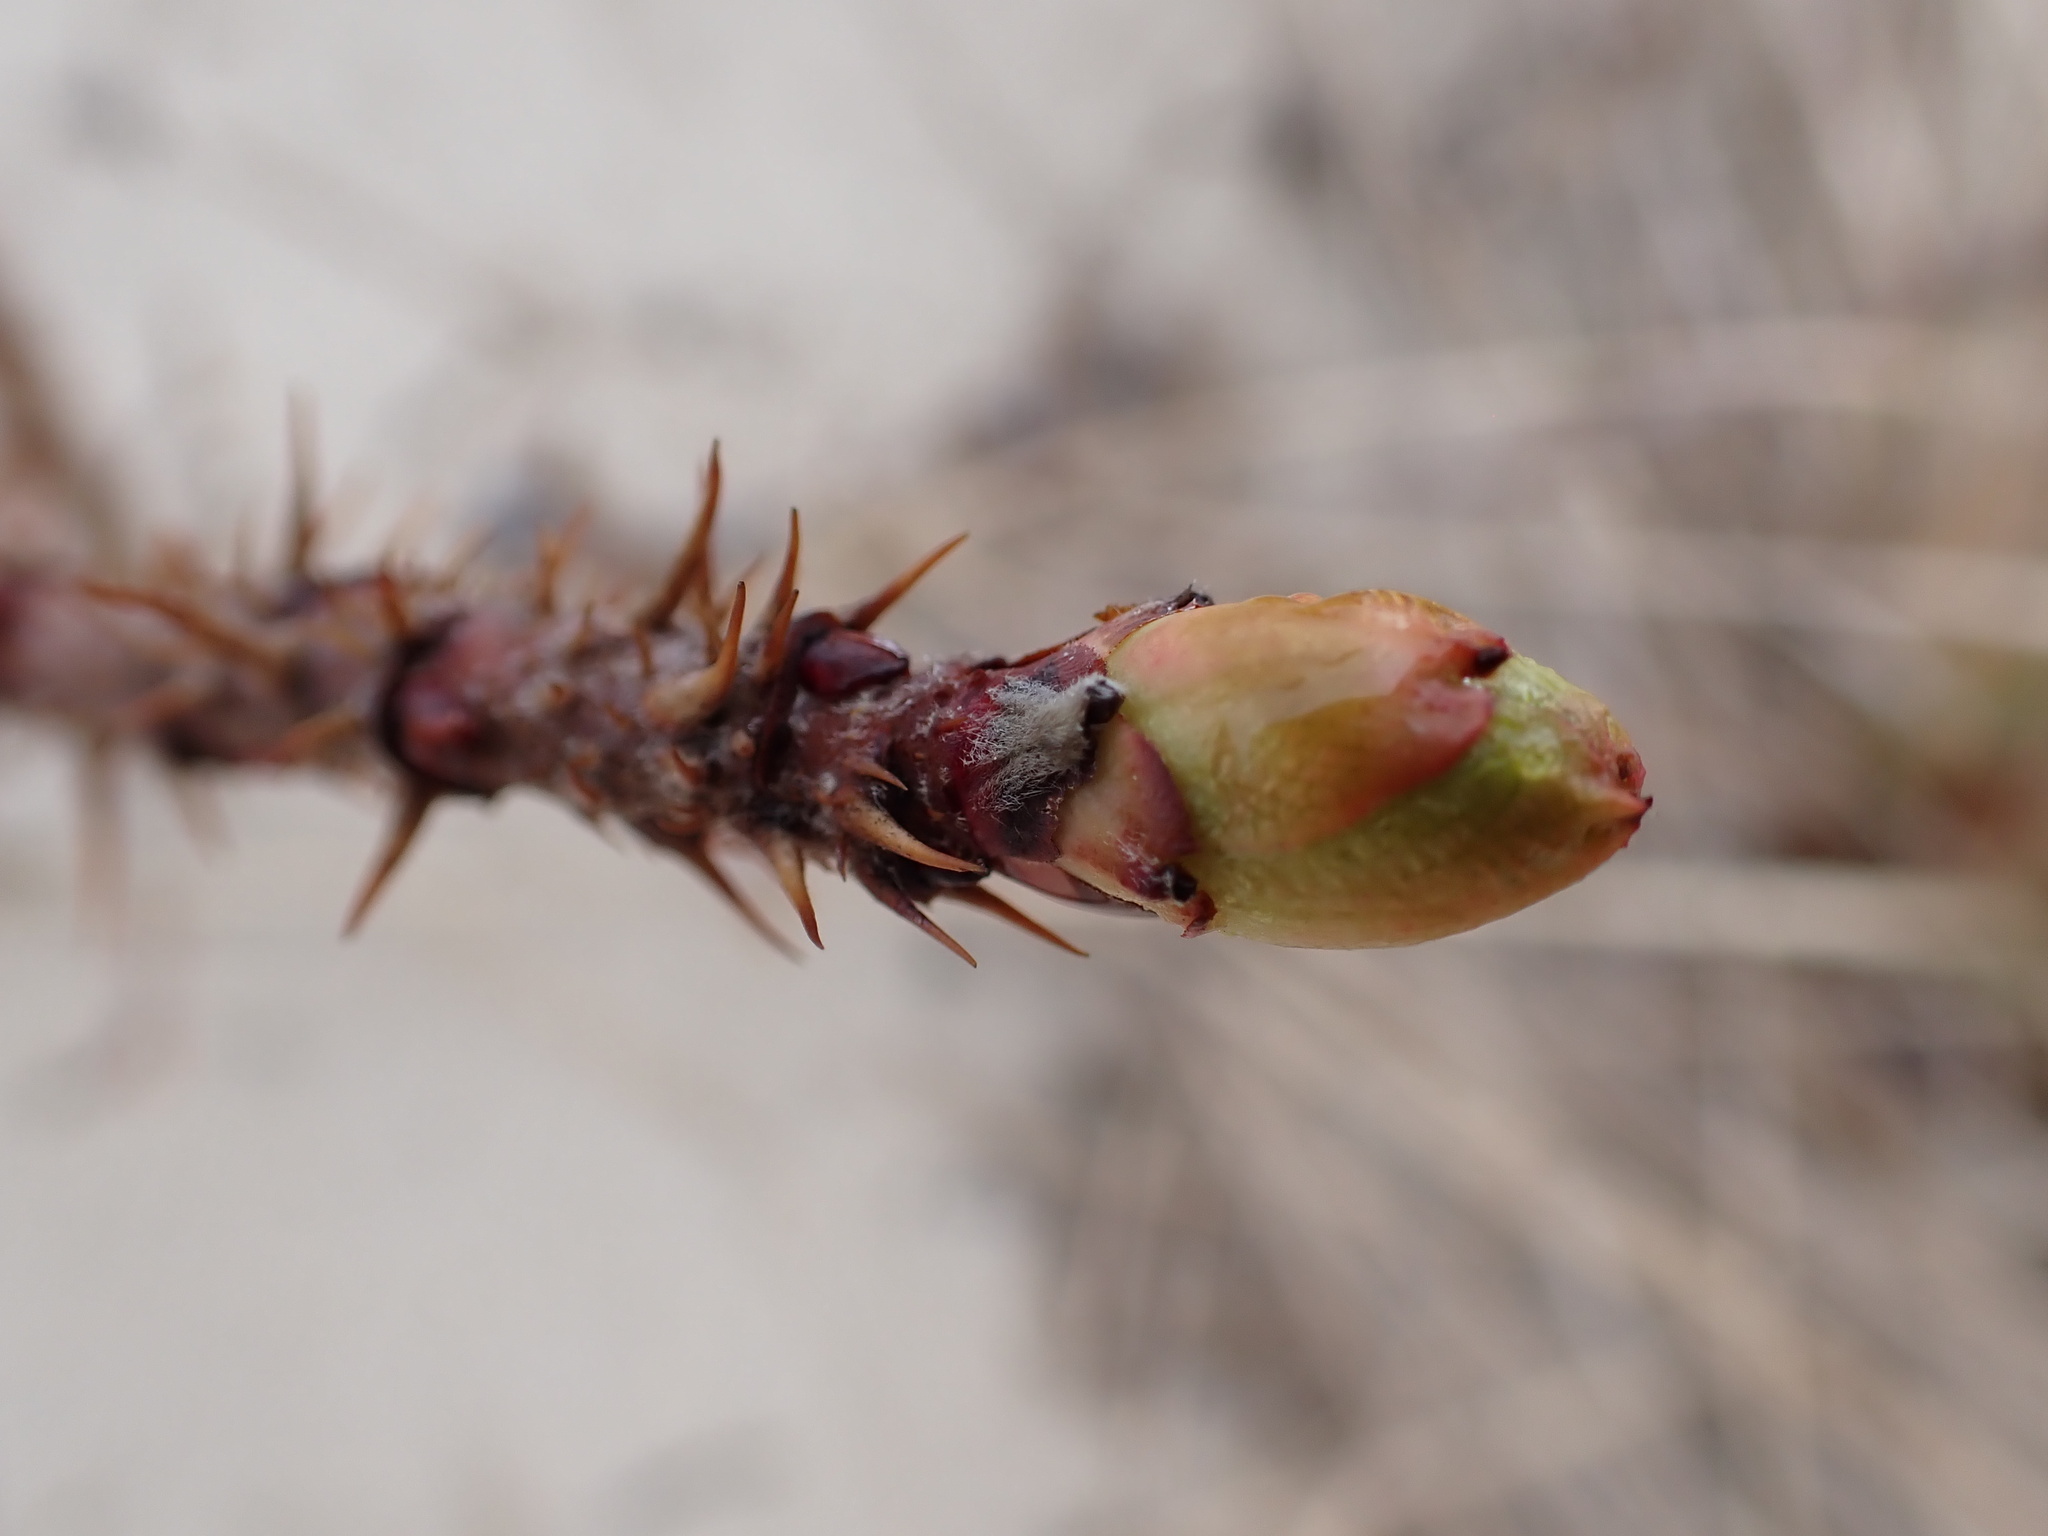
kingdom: Plantae
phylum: Tracheophyta
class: Magnoliopsida
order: Rosales
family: Rosaceae
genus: Rosa
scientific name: Rosa rugosa
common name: Japanese rose
